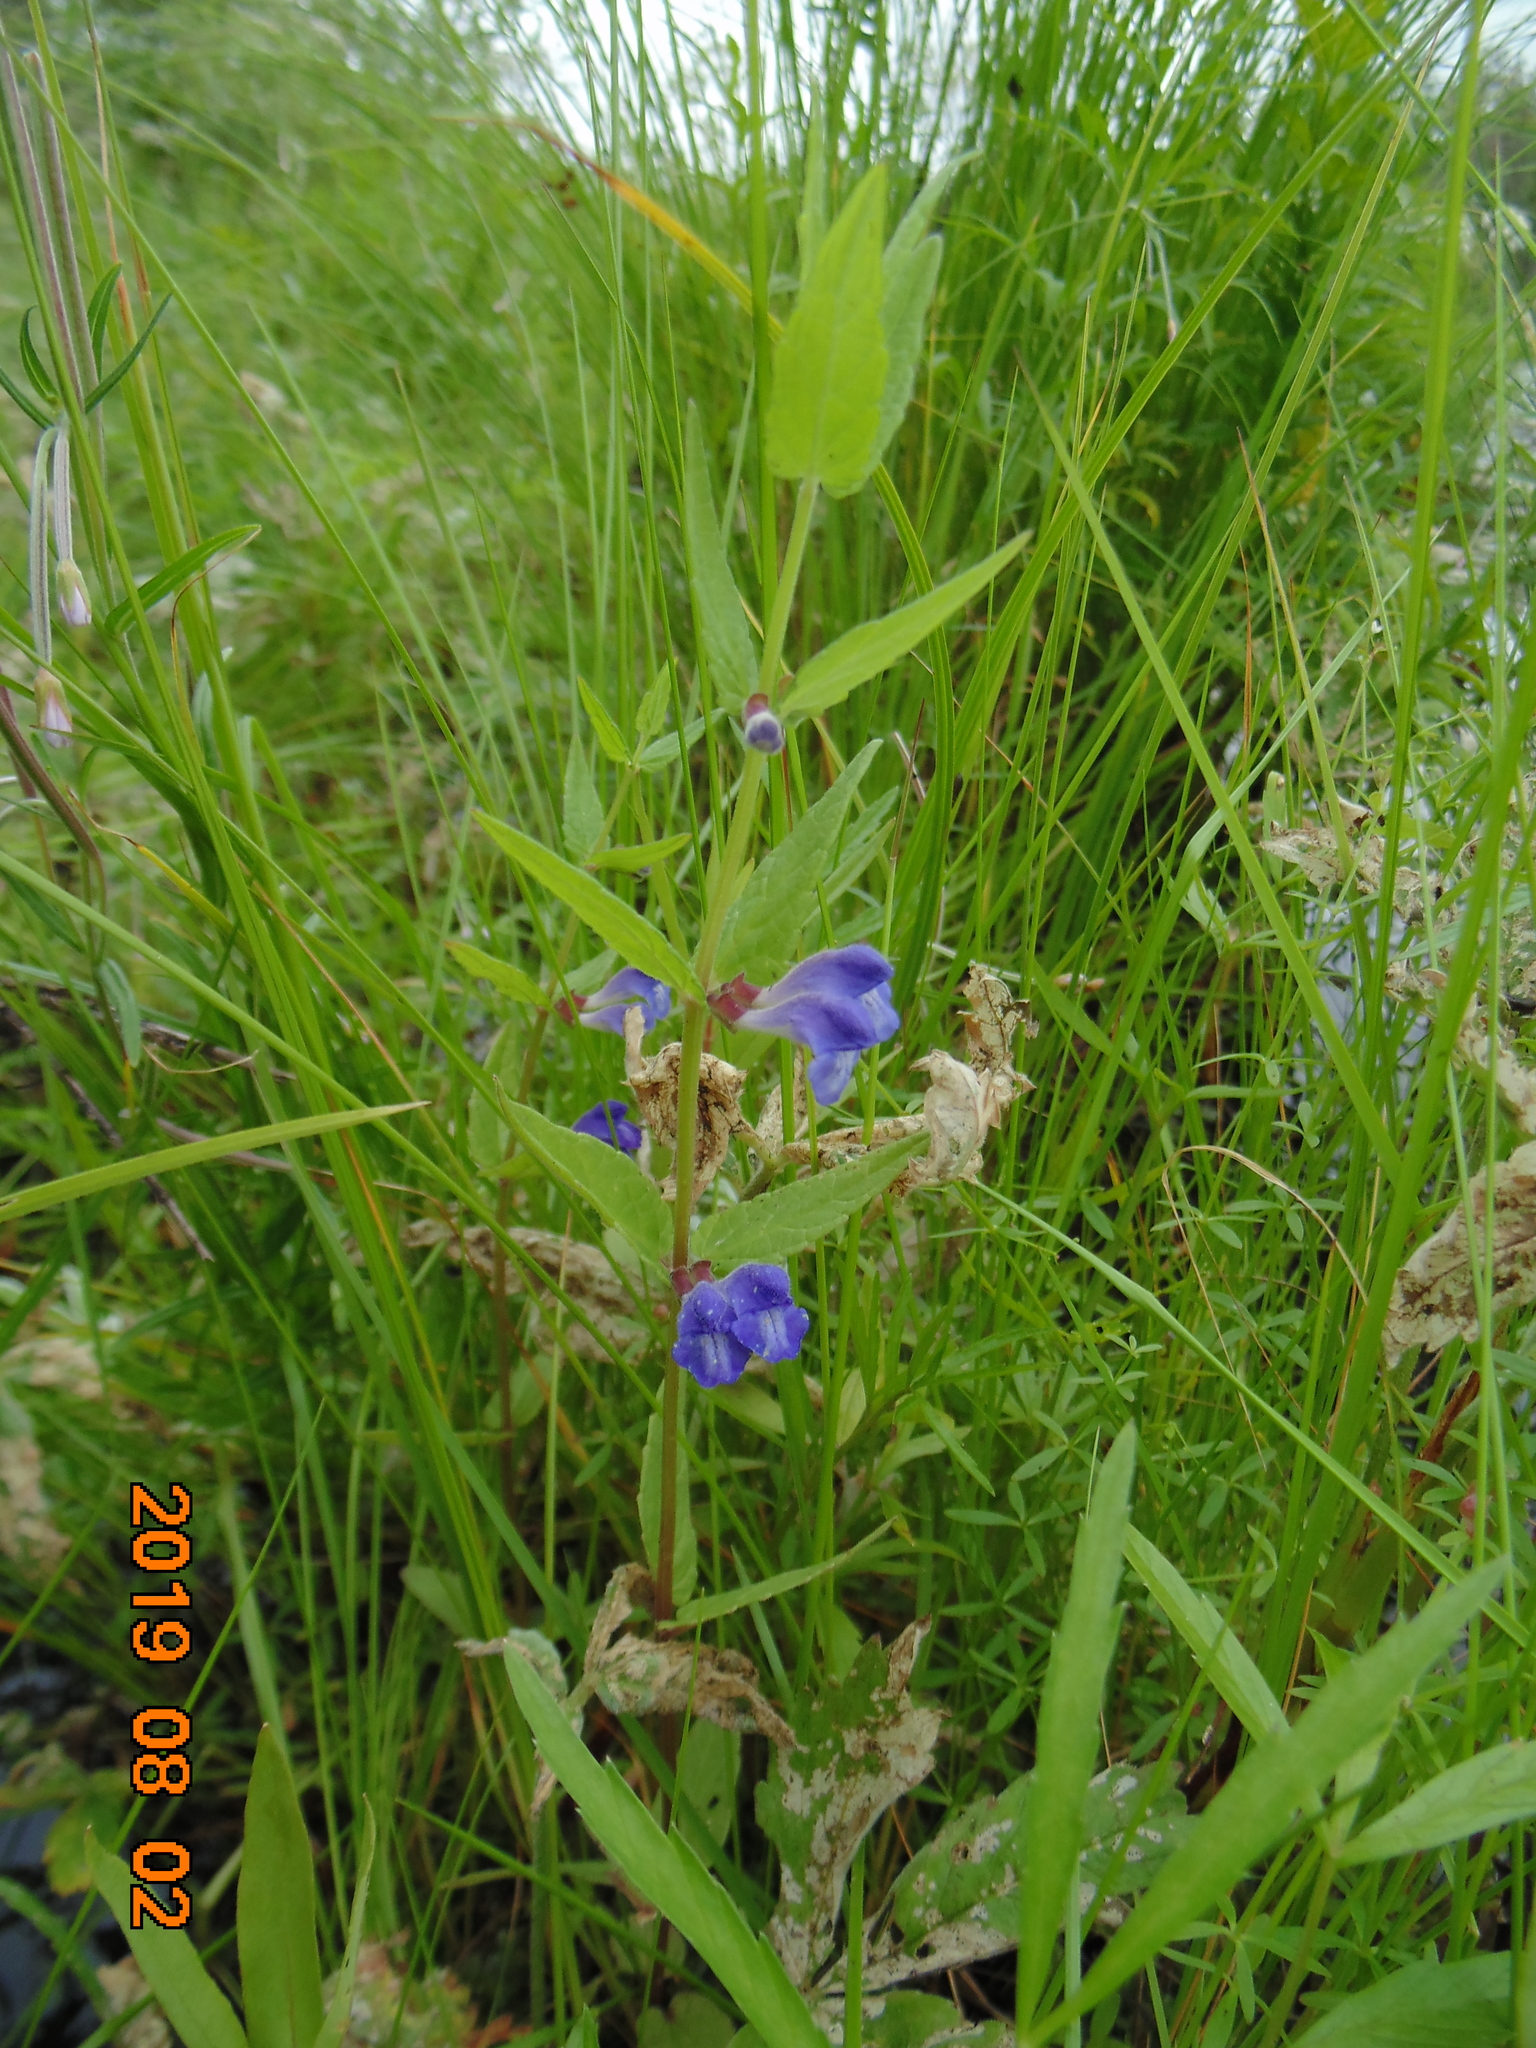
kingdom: Plantae
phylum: Tracheophyta
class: Magnoliopsida
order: Lamiales
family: Lamiaceae
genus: Scutellaria
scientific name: Scutellaria galericulata
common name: Skullcap
